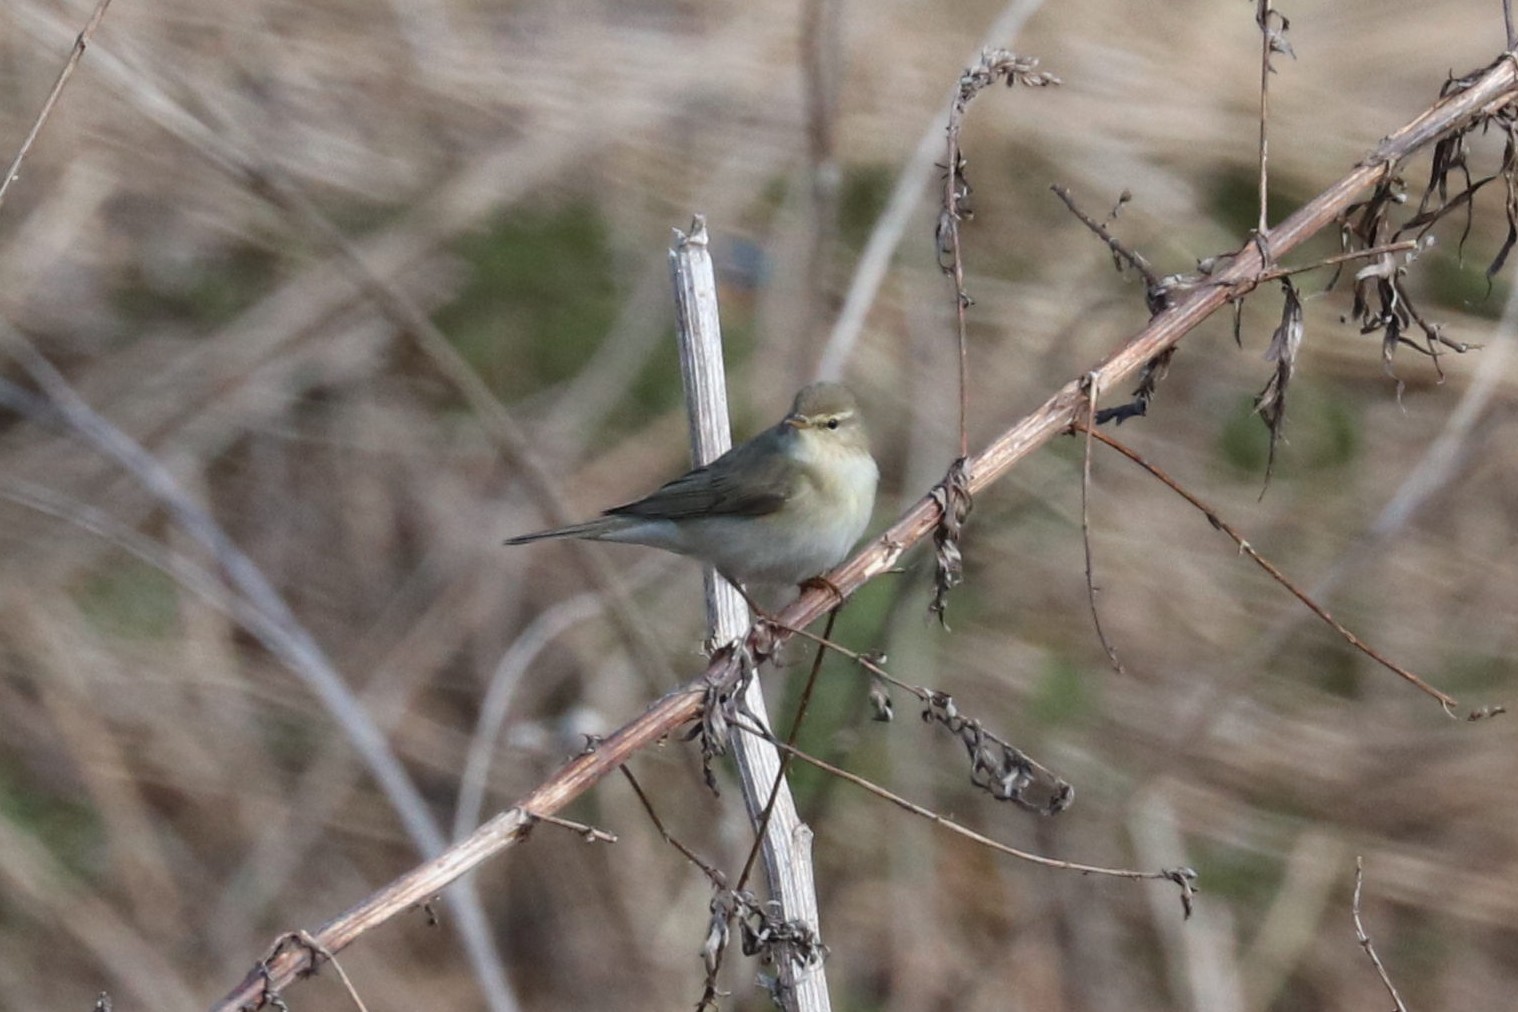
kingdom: Animalia
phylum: Chordata
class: Aves
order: Passeriformes
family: Phylloscopidae
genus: Phylloscopus
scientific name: Phylloscopus trochilus
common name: Willow warbler
